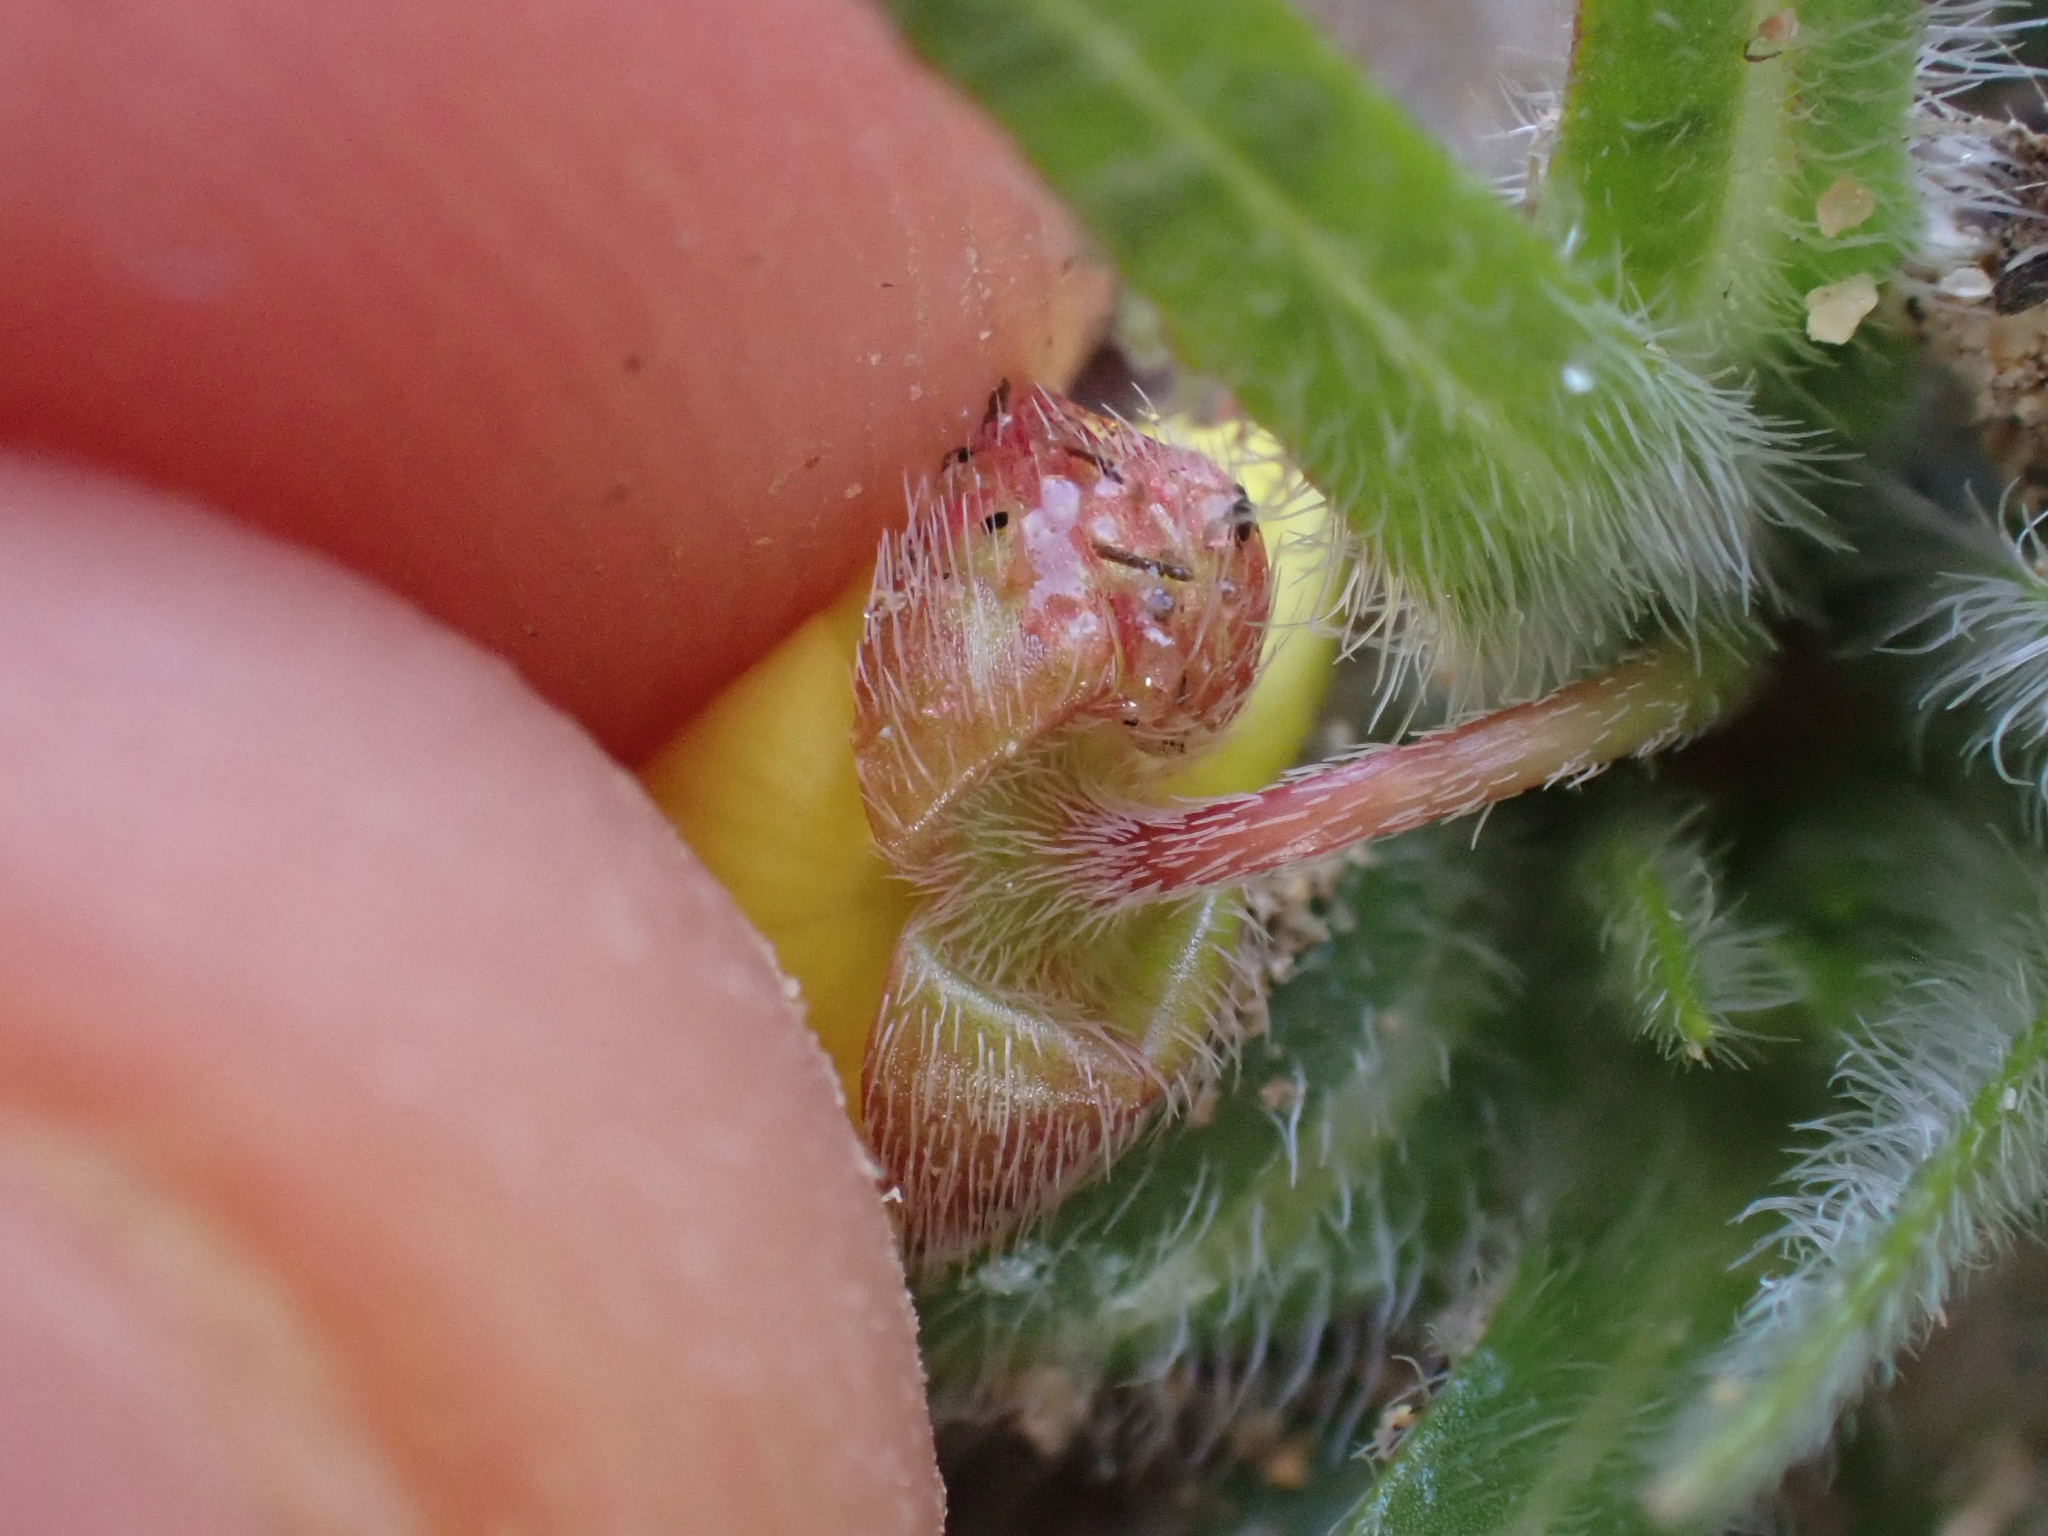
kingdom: Plantae
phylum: Tracheophyta
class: Magnoliopsida
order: Myrtales
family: Onagraceae
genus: Tetrapteron
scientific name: Tetrapteron graciliflorum
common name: Hill suncup
